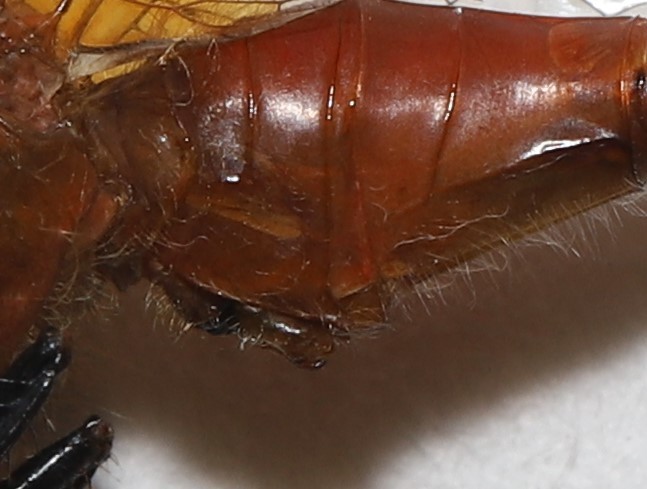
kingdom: Animalia
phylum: Arthropoda
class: Insecta
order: Odonata
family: Libellulidae
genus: Sympetrum
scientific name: Sympetrum obtrusum
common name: White-faced meadowhawk
